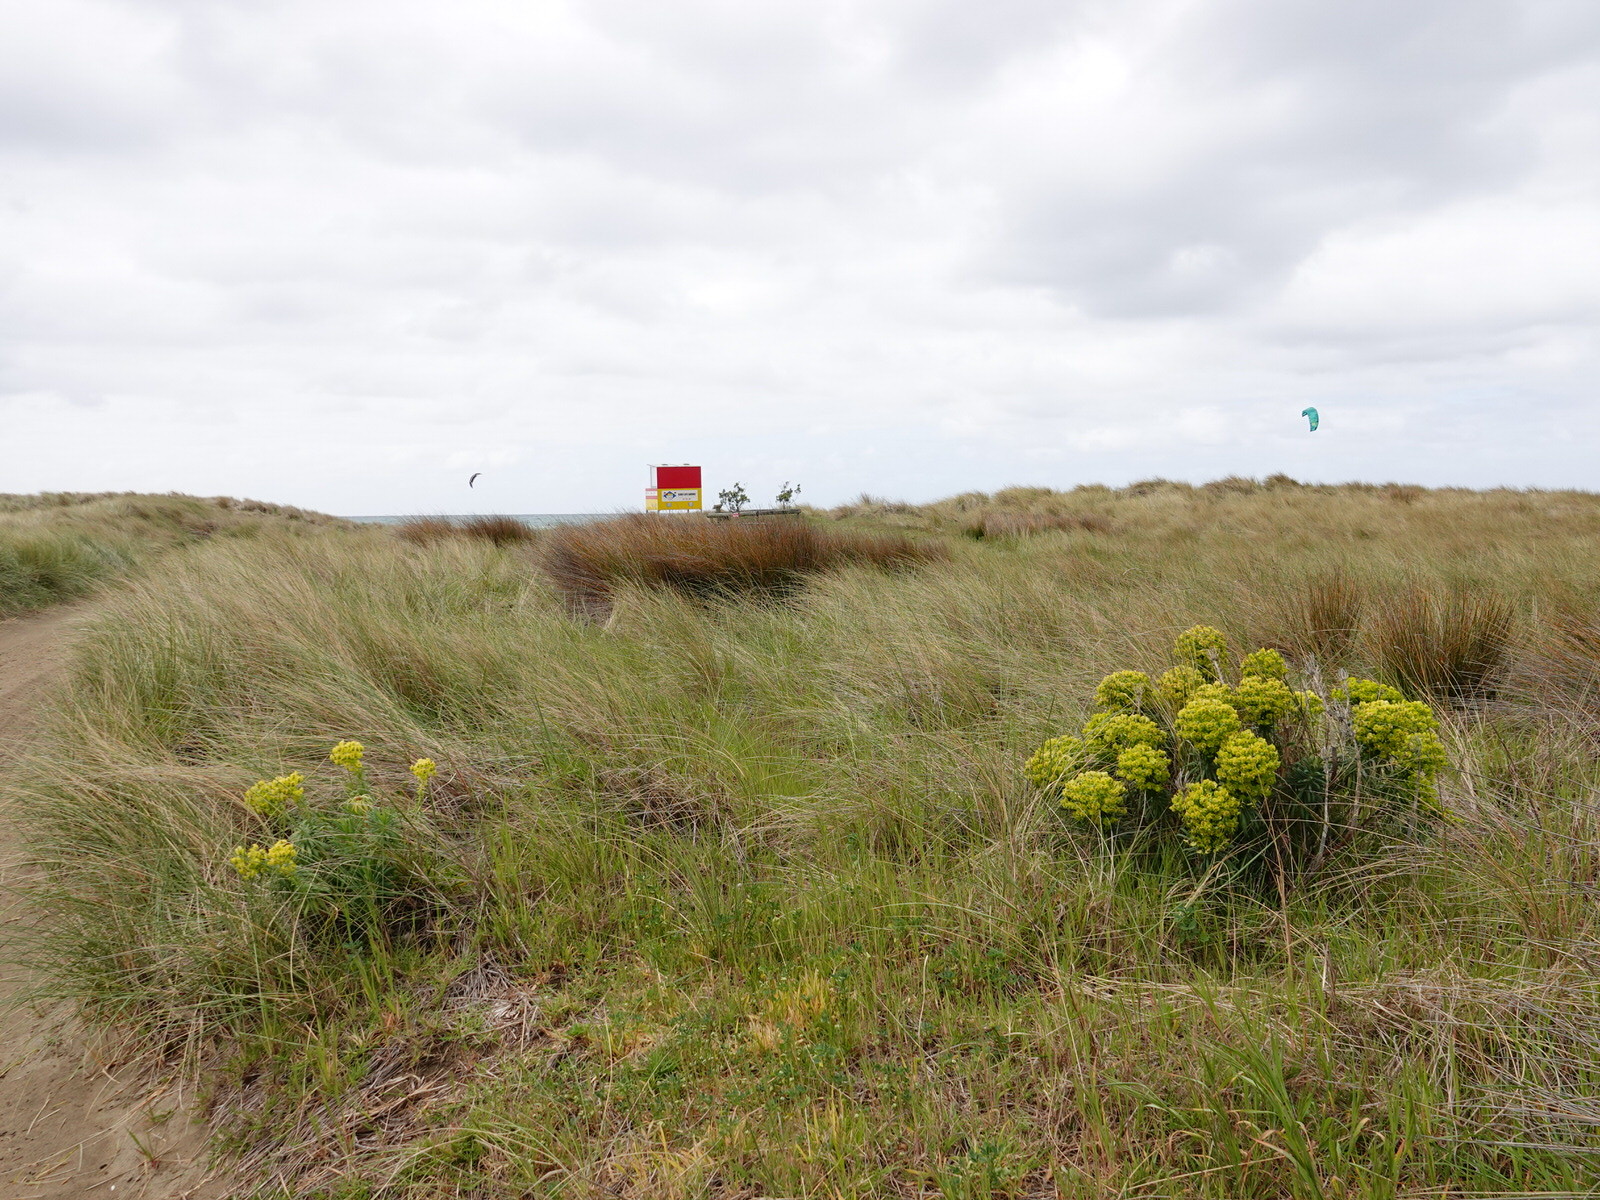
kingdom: Plantae
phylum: Tracheophyta
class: Magnoliopsida
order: Malpighiales
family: Euphorbiaceae
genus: Euphorbia
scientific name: Euphorbia characias
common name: Mediterranean spurge
